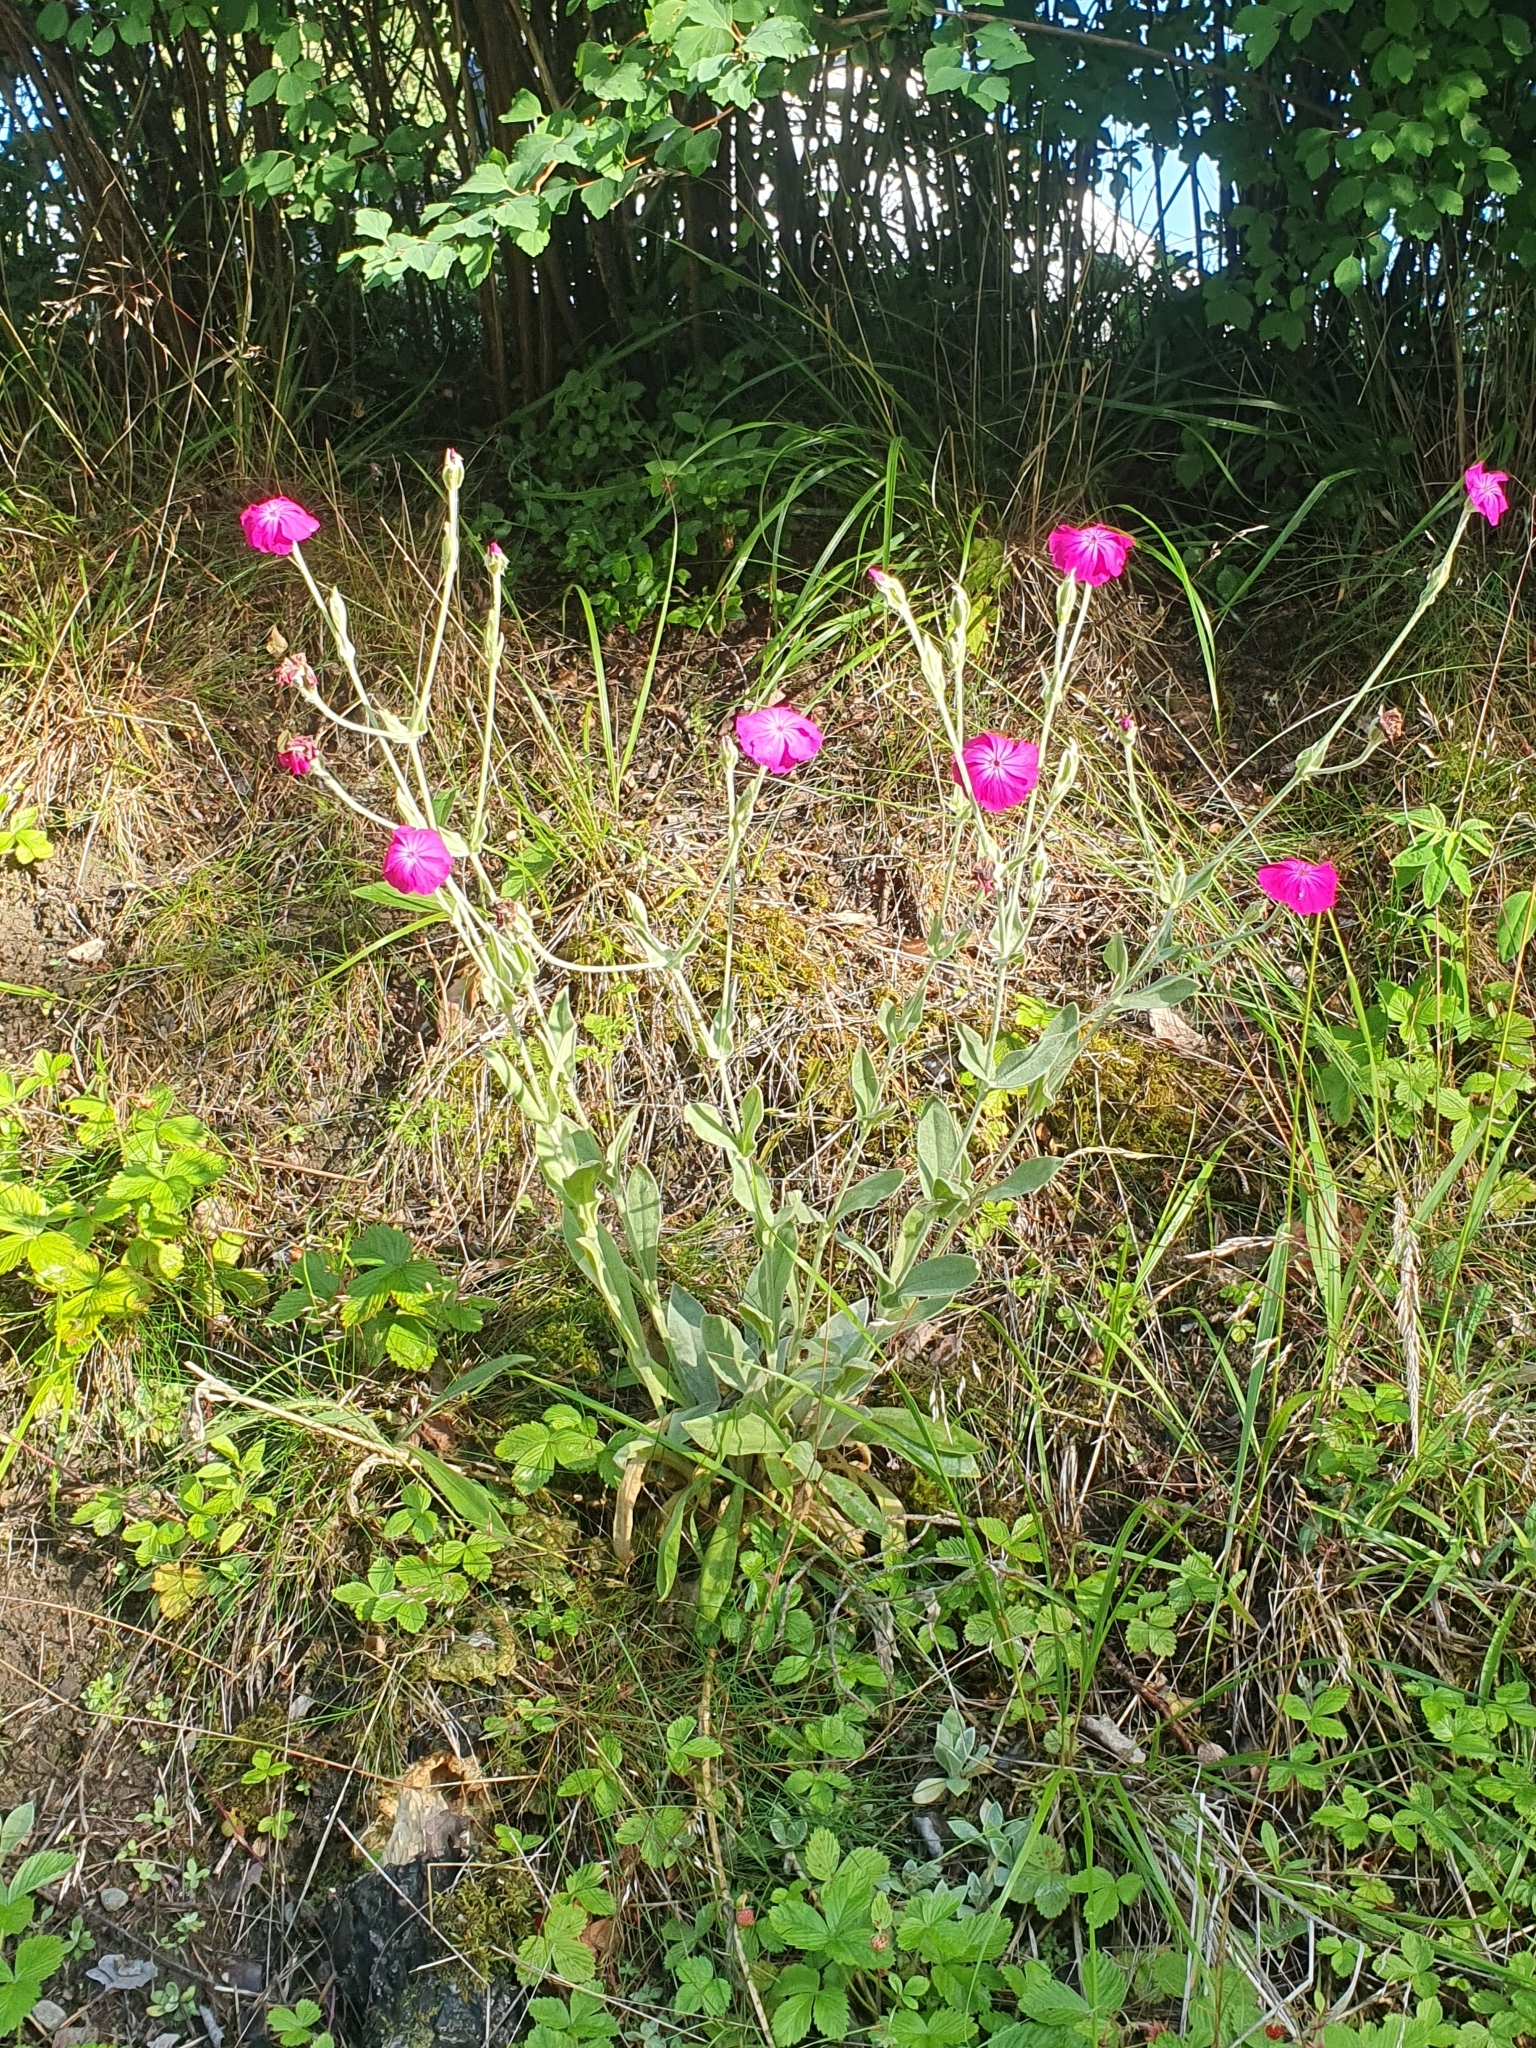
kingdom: Plantae
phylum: Tracheophyta
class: Magnoliopsida
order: Caryophyllales
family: Caryophyllaceae
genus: Silene
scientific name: Silene coronaria
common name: Rose campion
